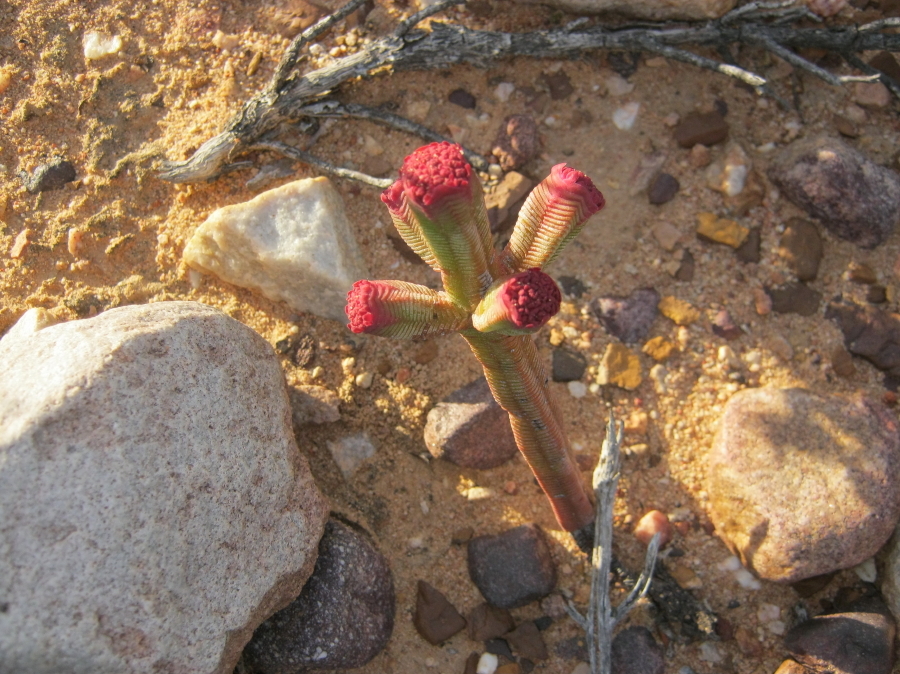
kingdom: Plantae
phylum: Tracheophyta
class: Magnoliopsida
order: Saxifragales
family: Crassulaceae
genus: Crassula
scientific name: Crassula pyramidalis
